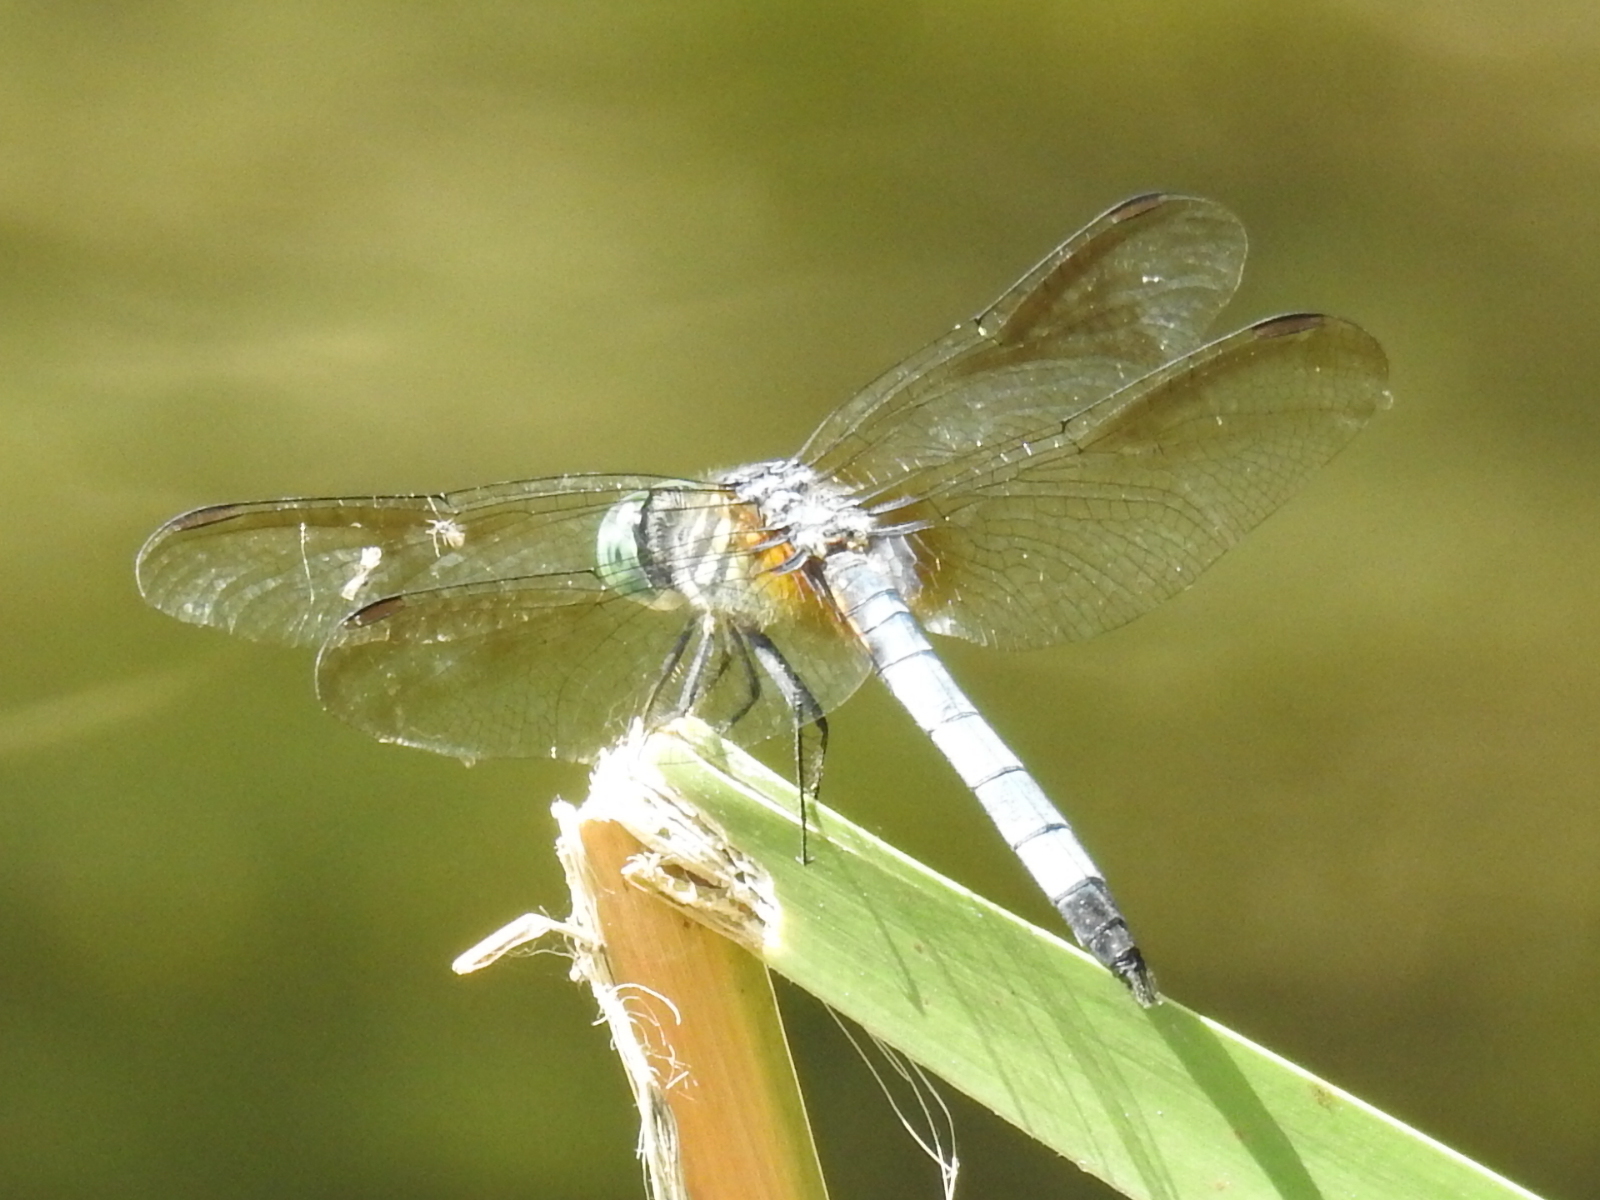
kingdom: Animalia
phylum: Arthropoda
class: Insecta
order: Odonata
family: Libellulidae
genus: Pachydiplax
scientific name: Pachydiplax longipennis
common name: Blue dasher
